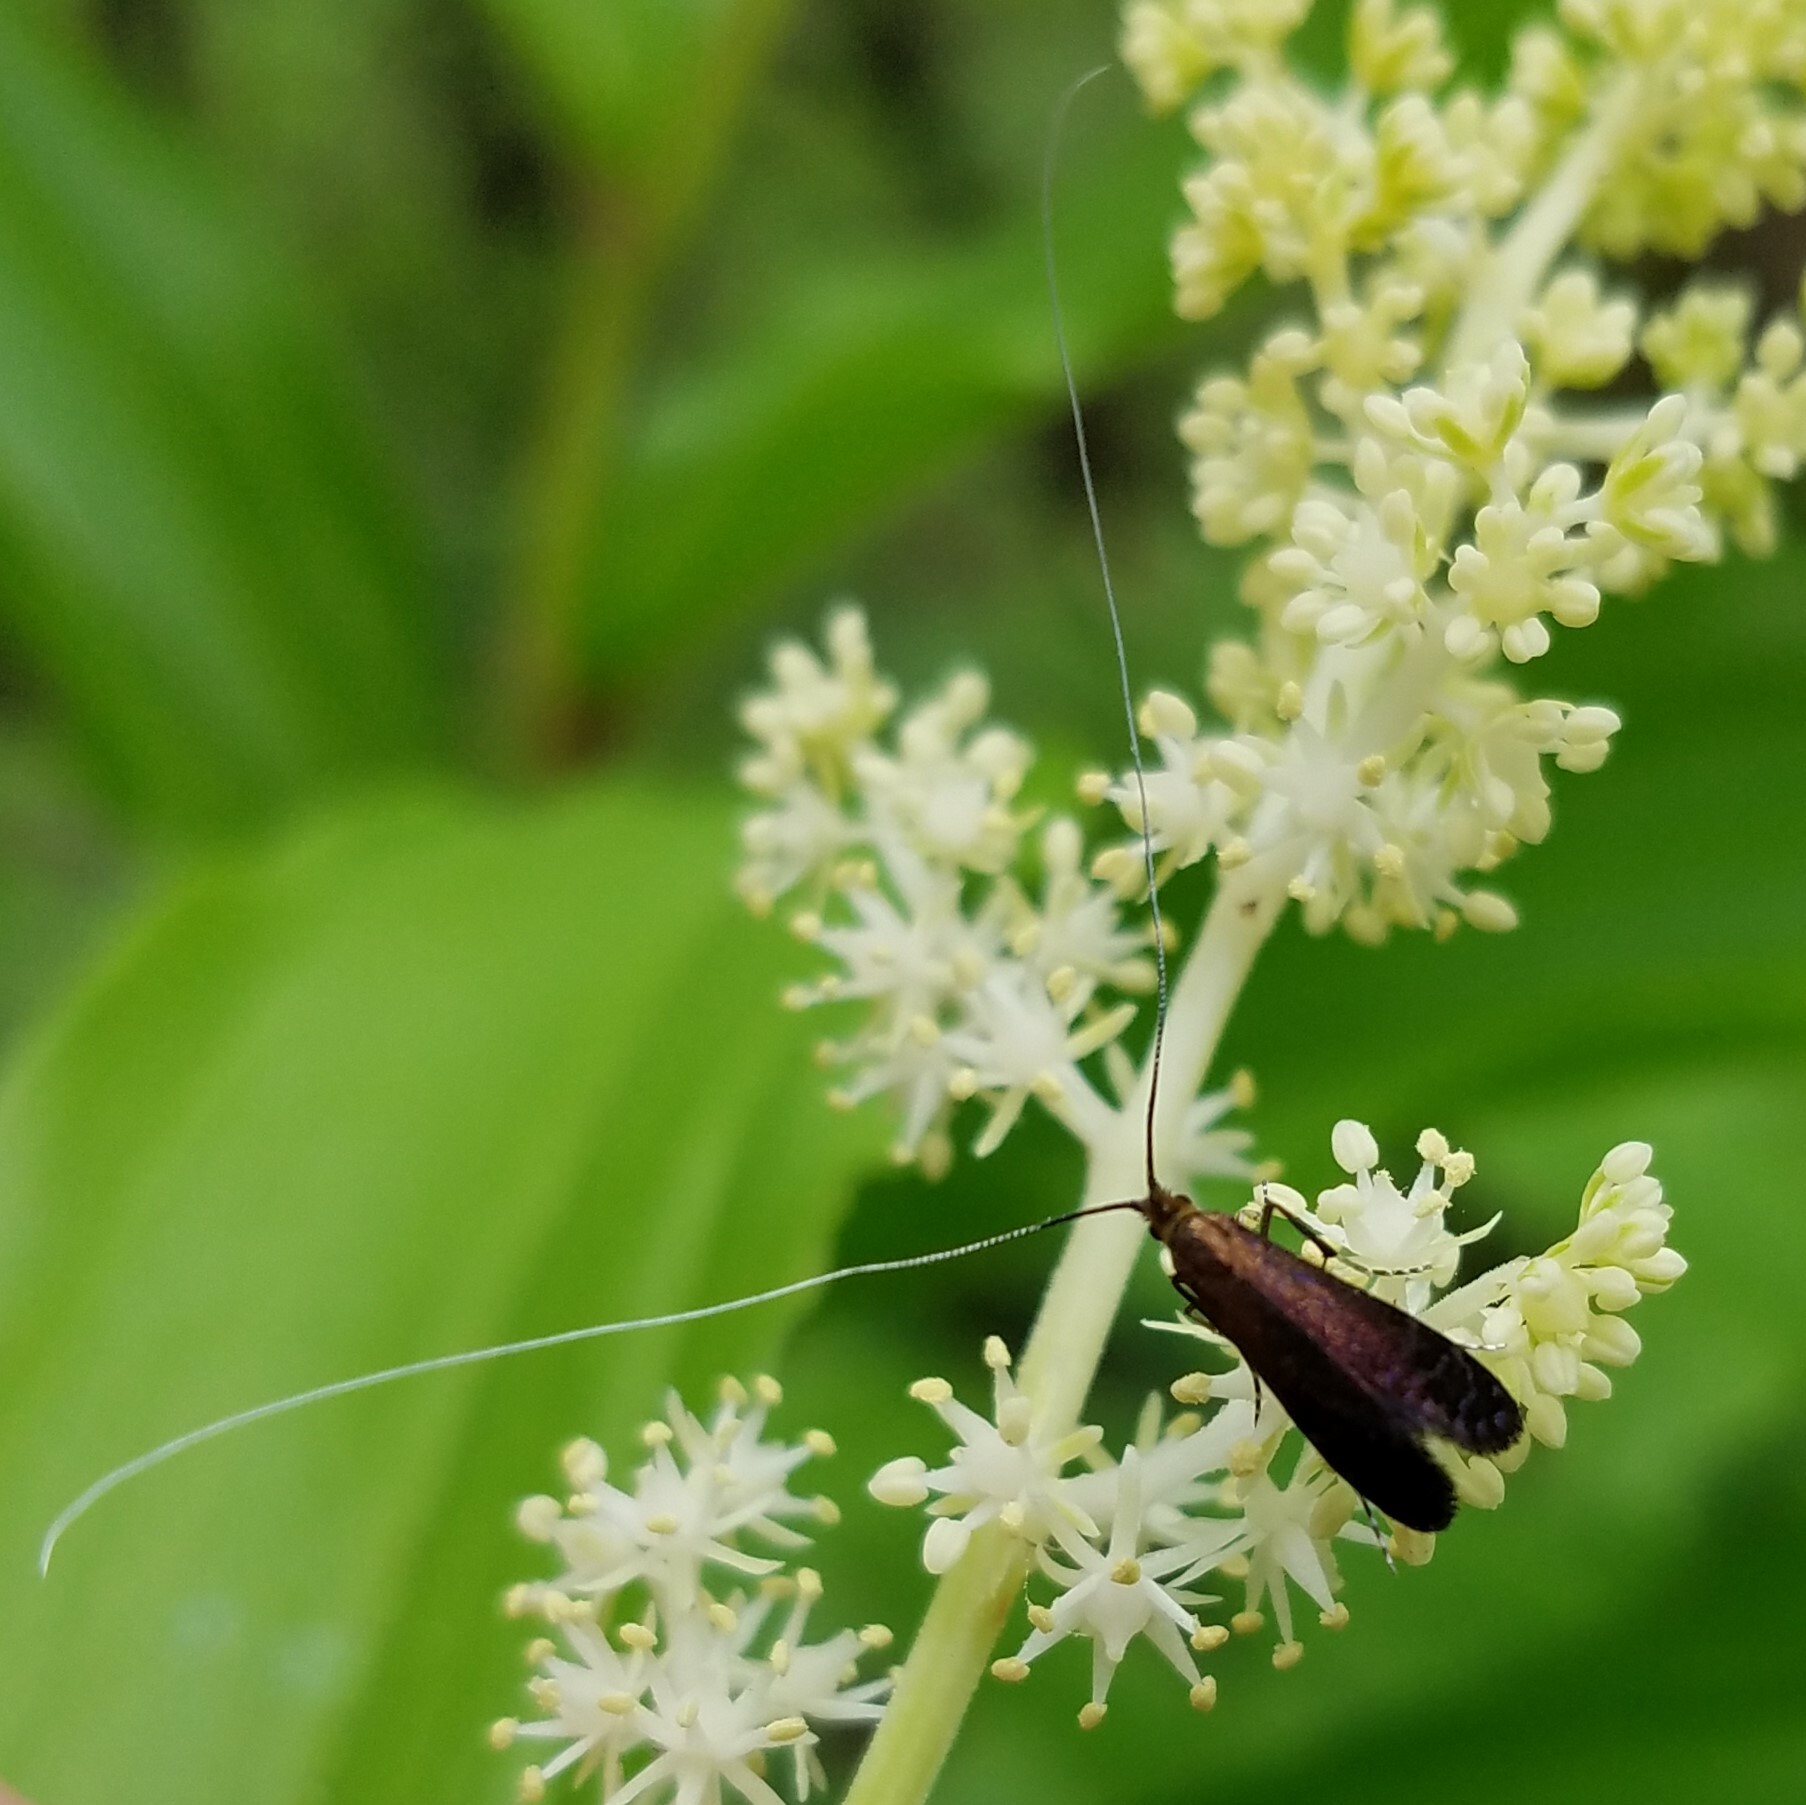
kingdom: Animalia
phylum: Arthropoda
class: Insecta
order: Lepidoptera
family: Adelidae
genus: Adela
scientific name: Adela caeruleella
